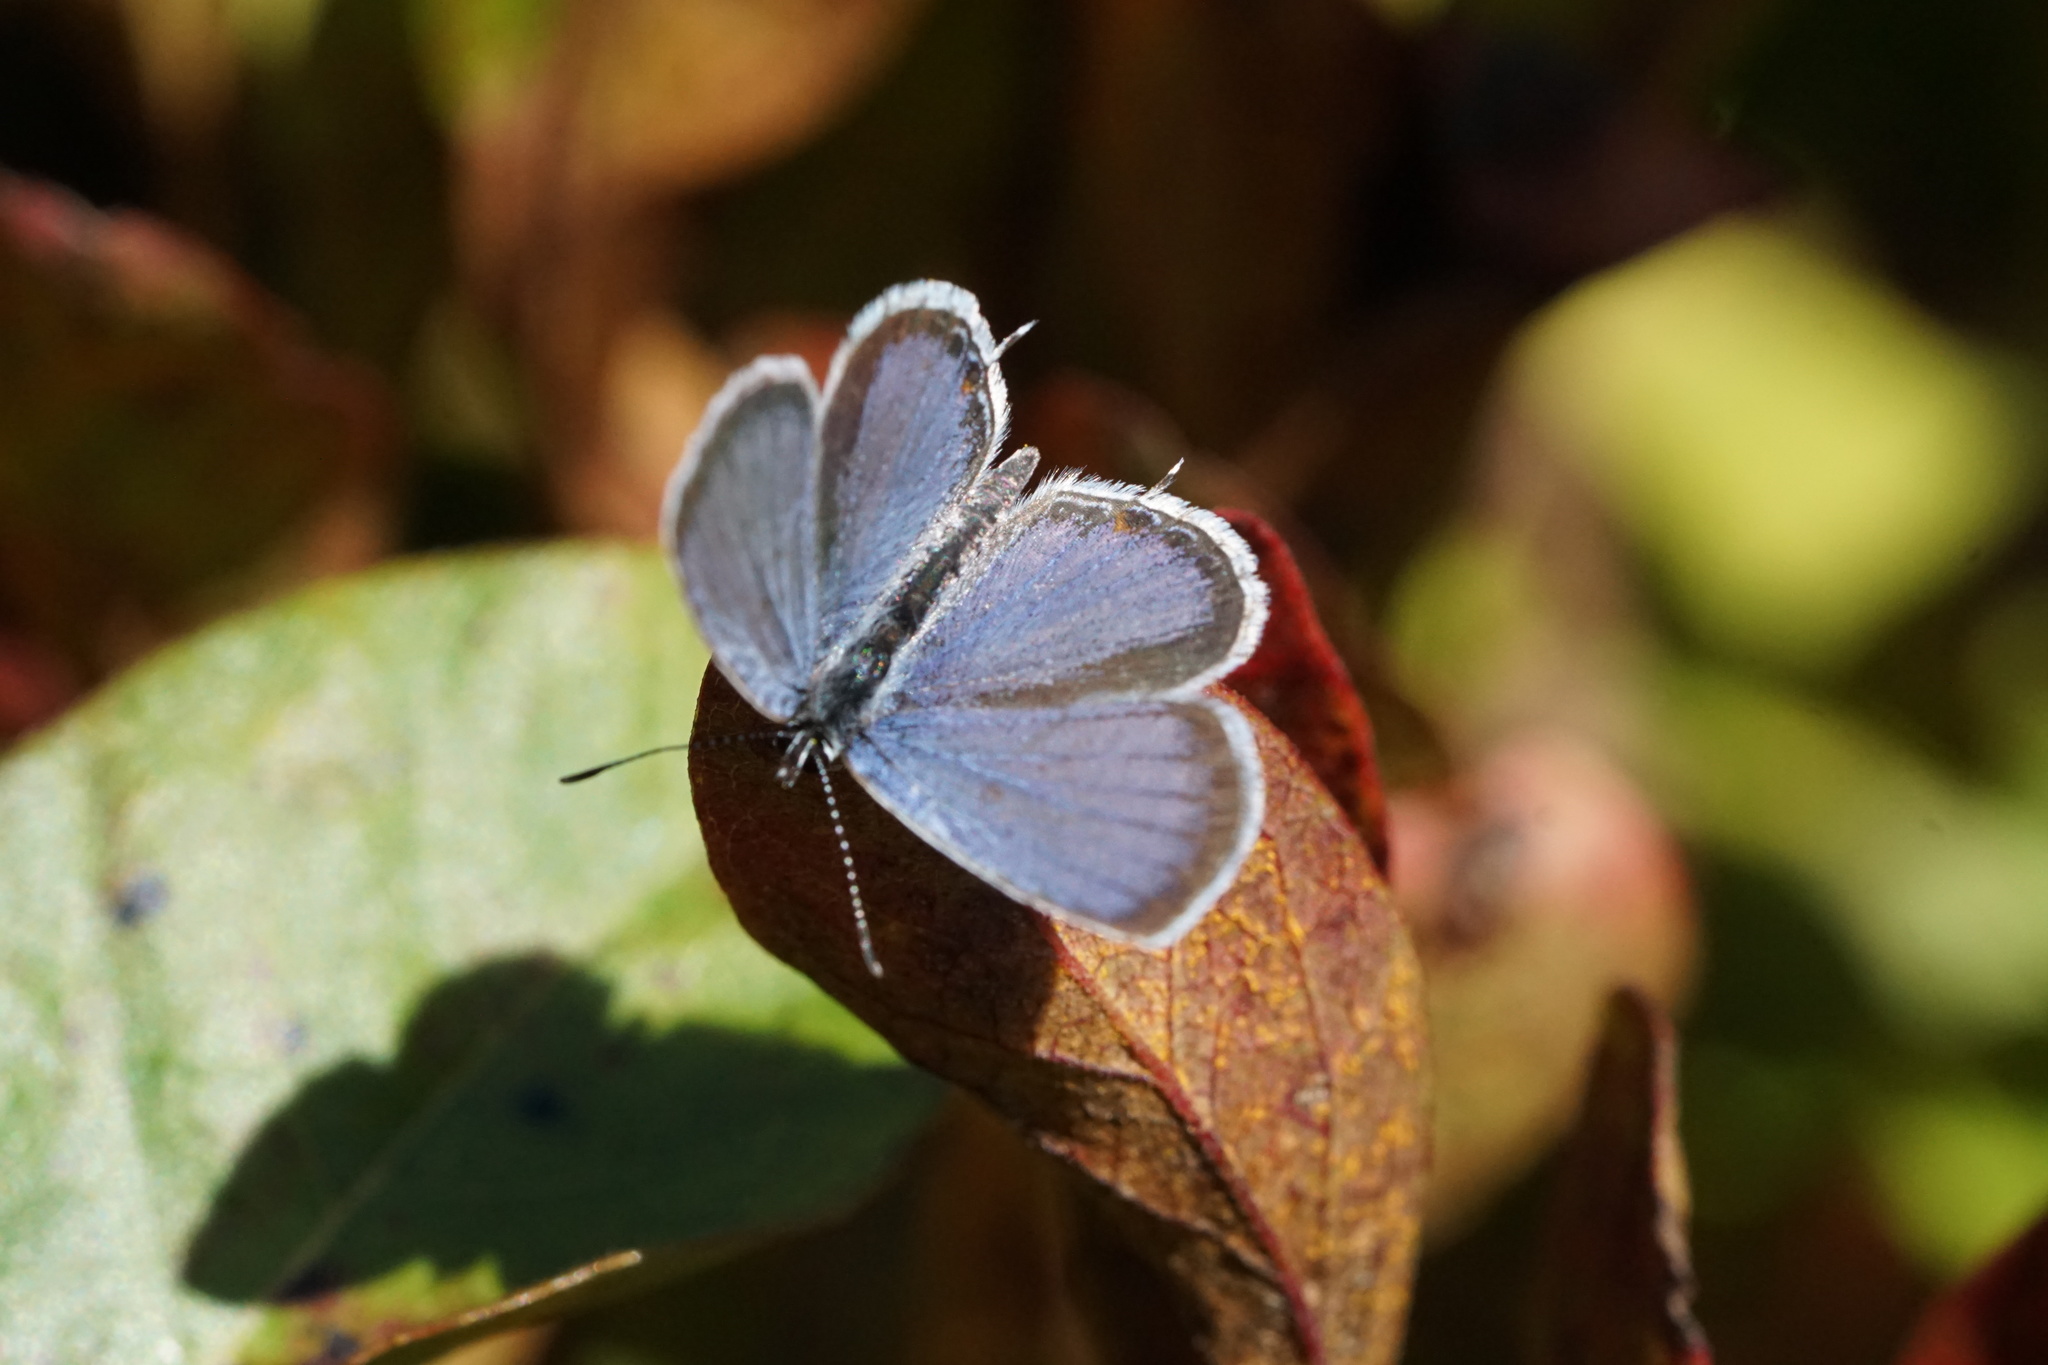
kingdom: Animalia
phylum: Arthropoda
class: Insecta
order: Lepidoptera
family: Lycaenidae
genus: Elkalyce
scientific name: Elkalyce comyntas
